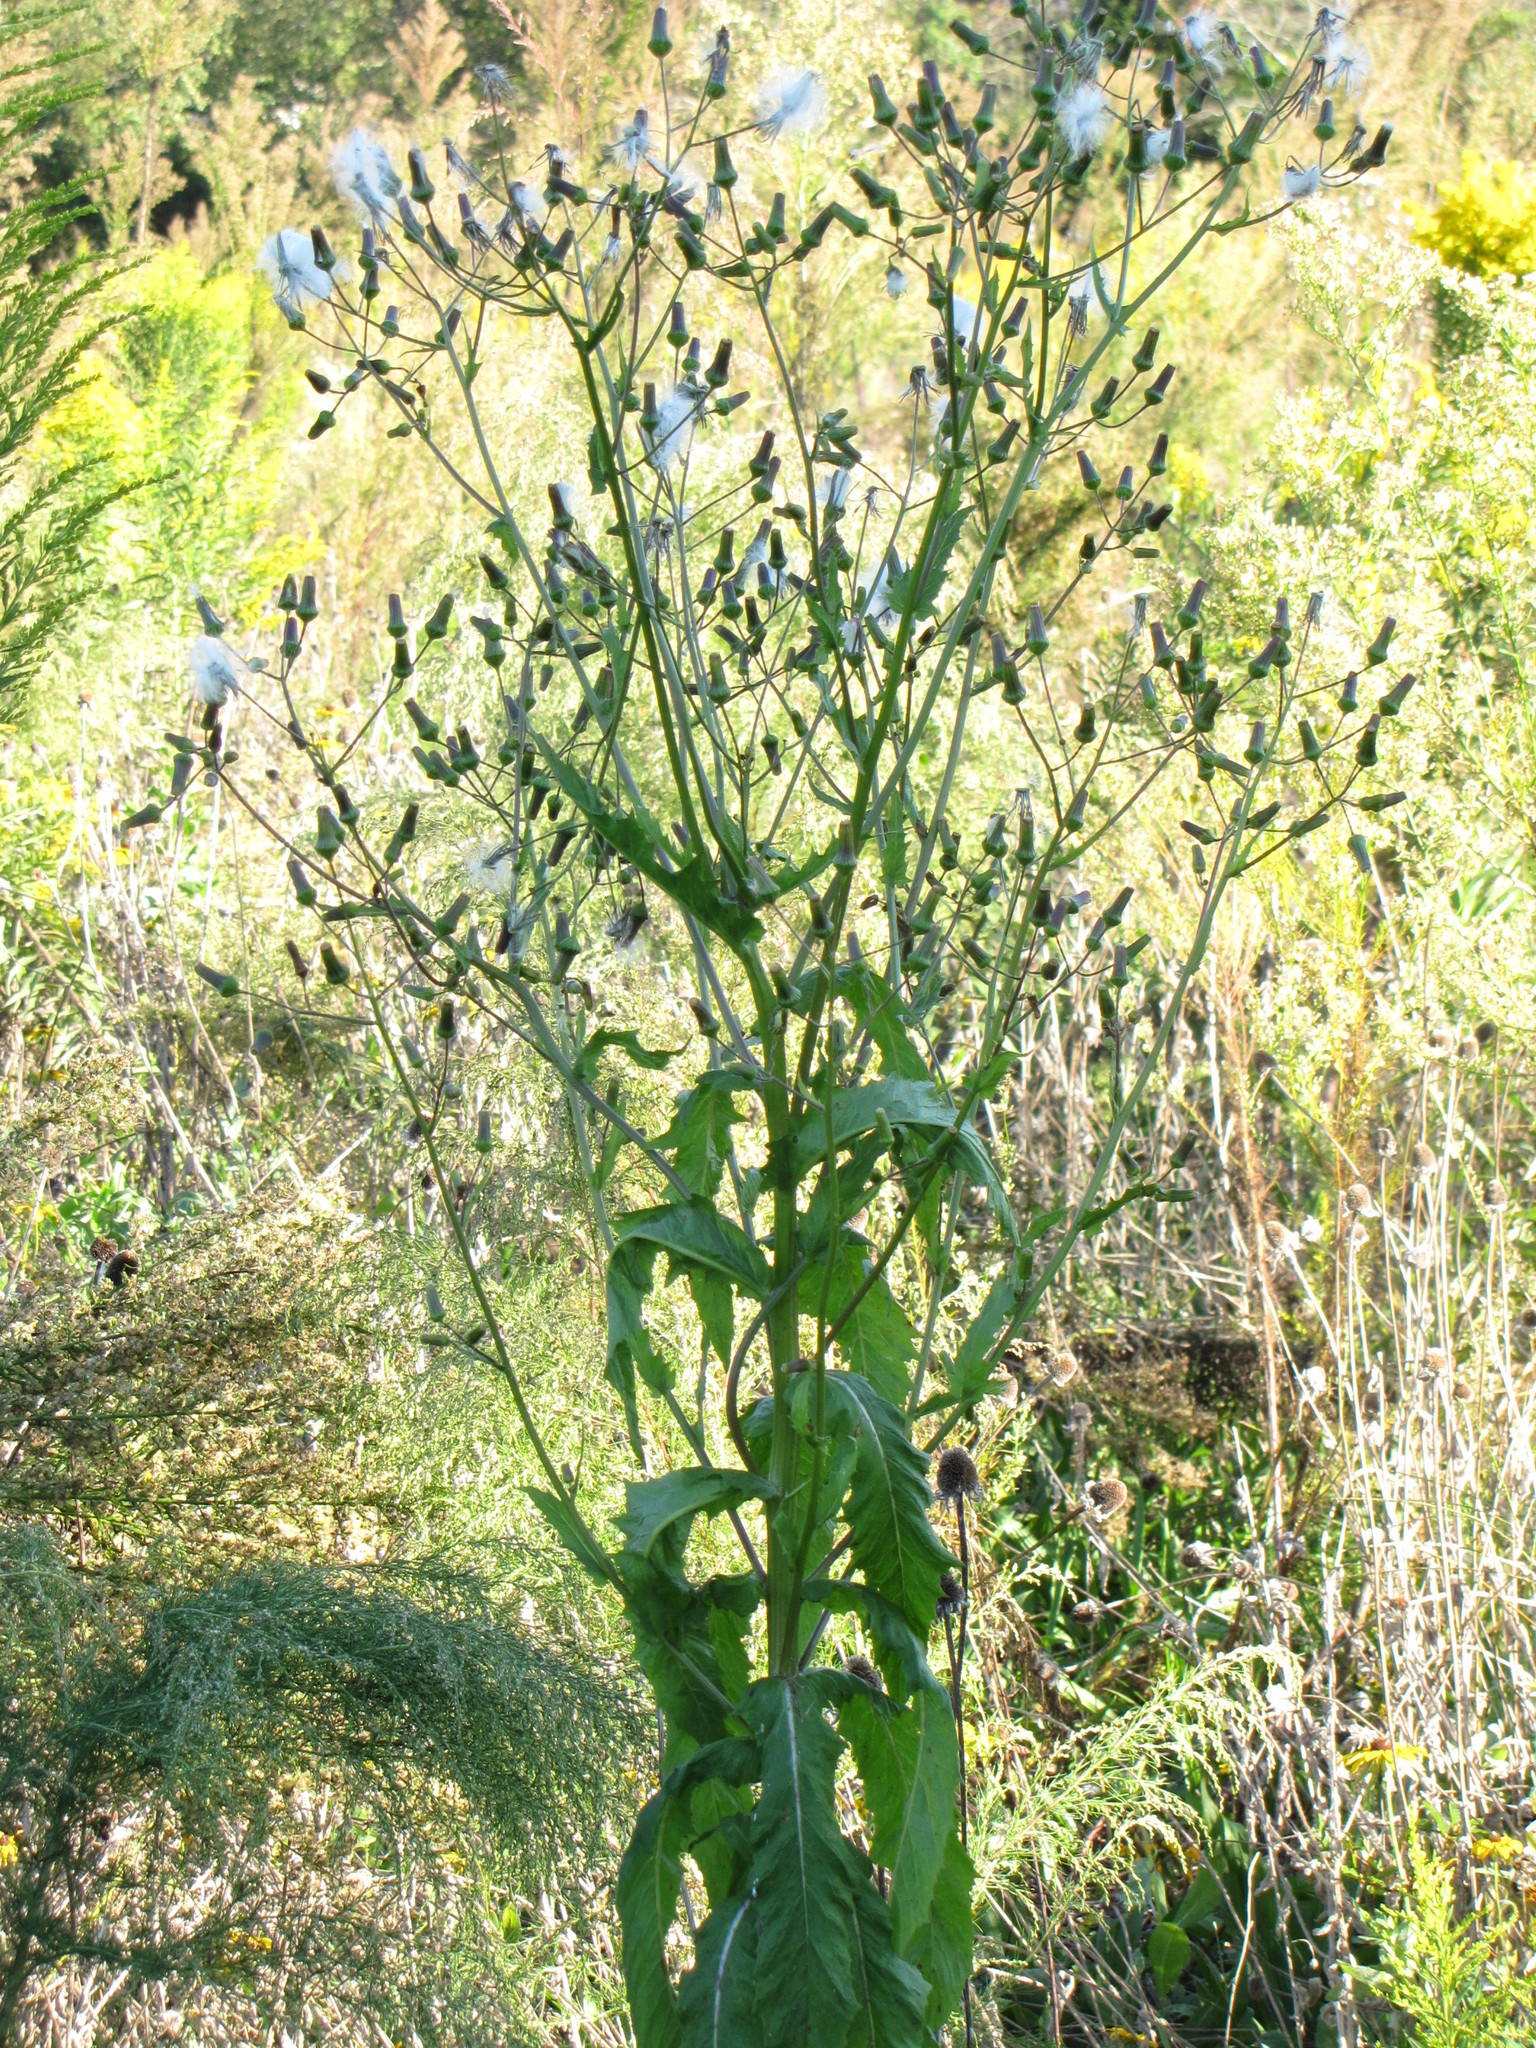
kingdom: Plantae
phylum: Tracheophyta
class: Magnoliopsida
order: Asterales
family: Asteraceae
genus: Erechtites
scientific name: Erechtites hieraciifolius
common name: American burnweed
